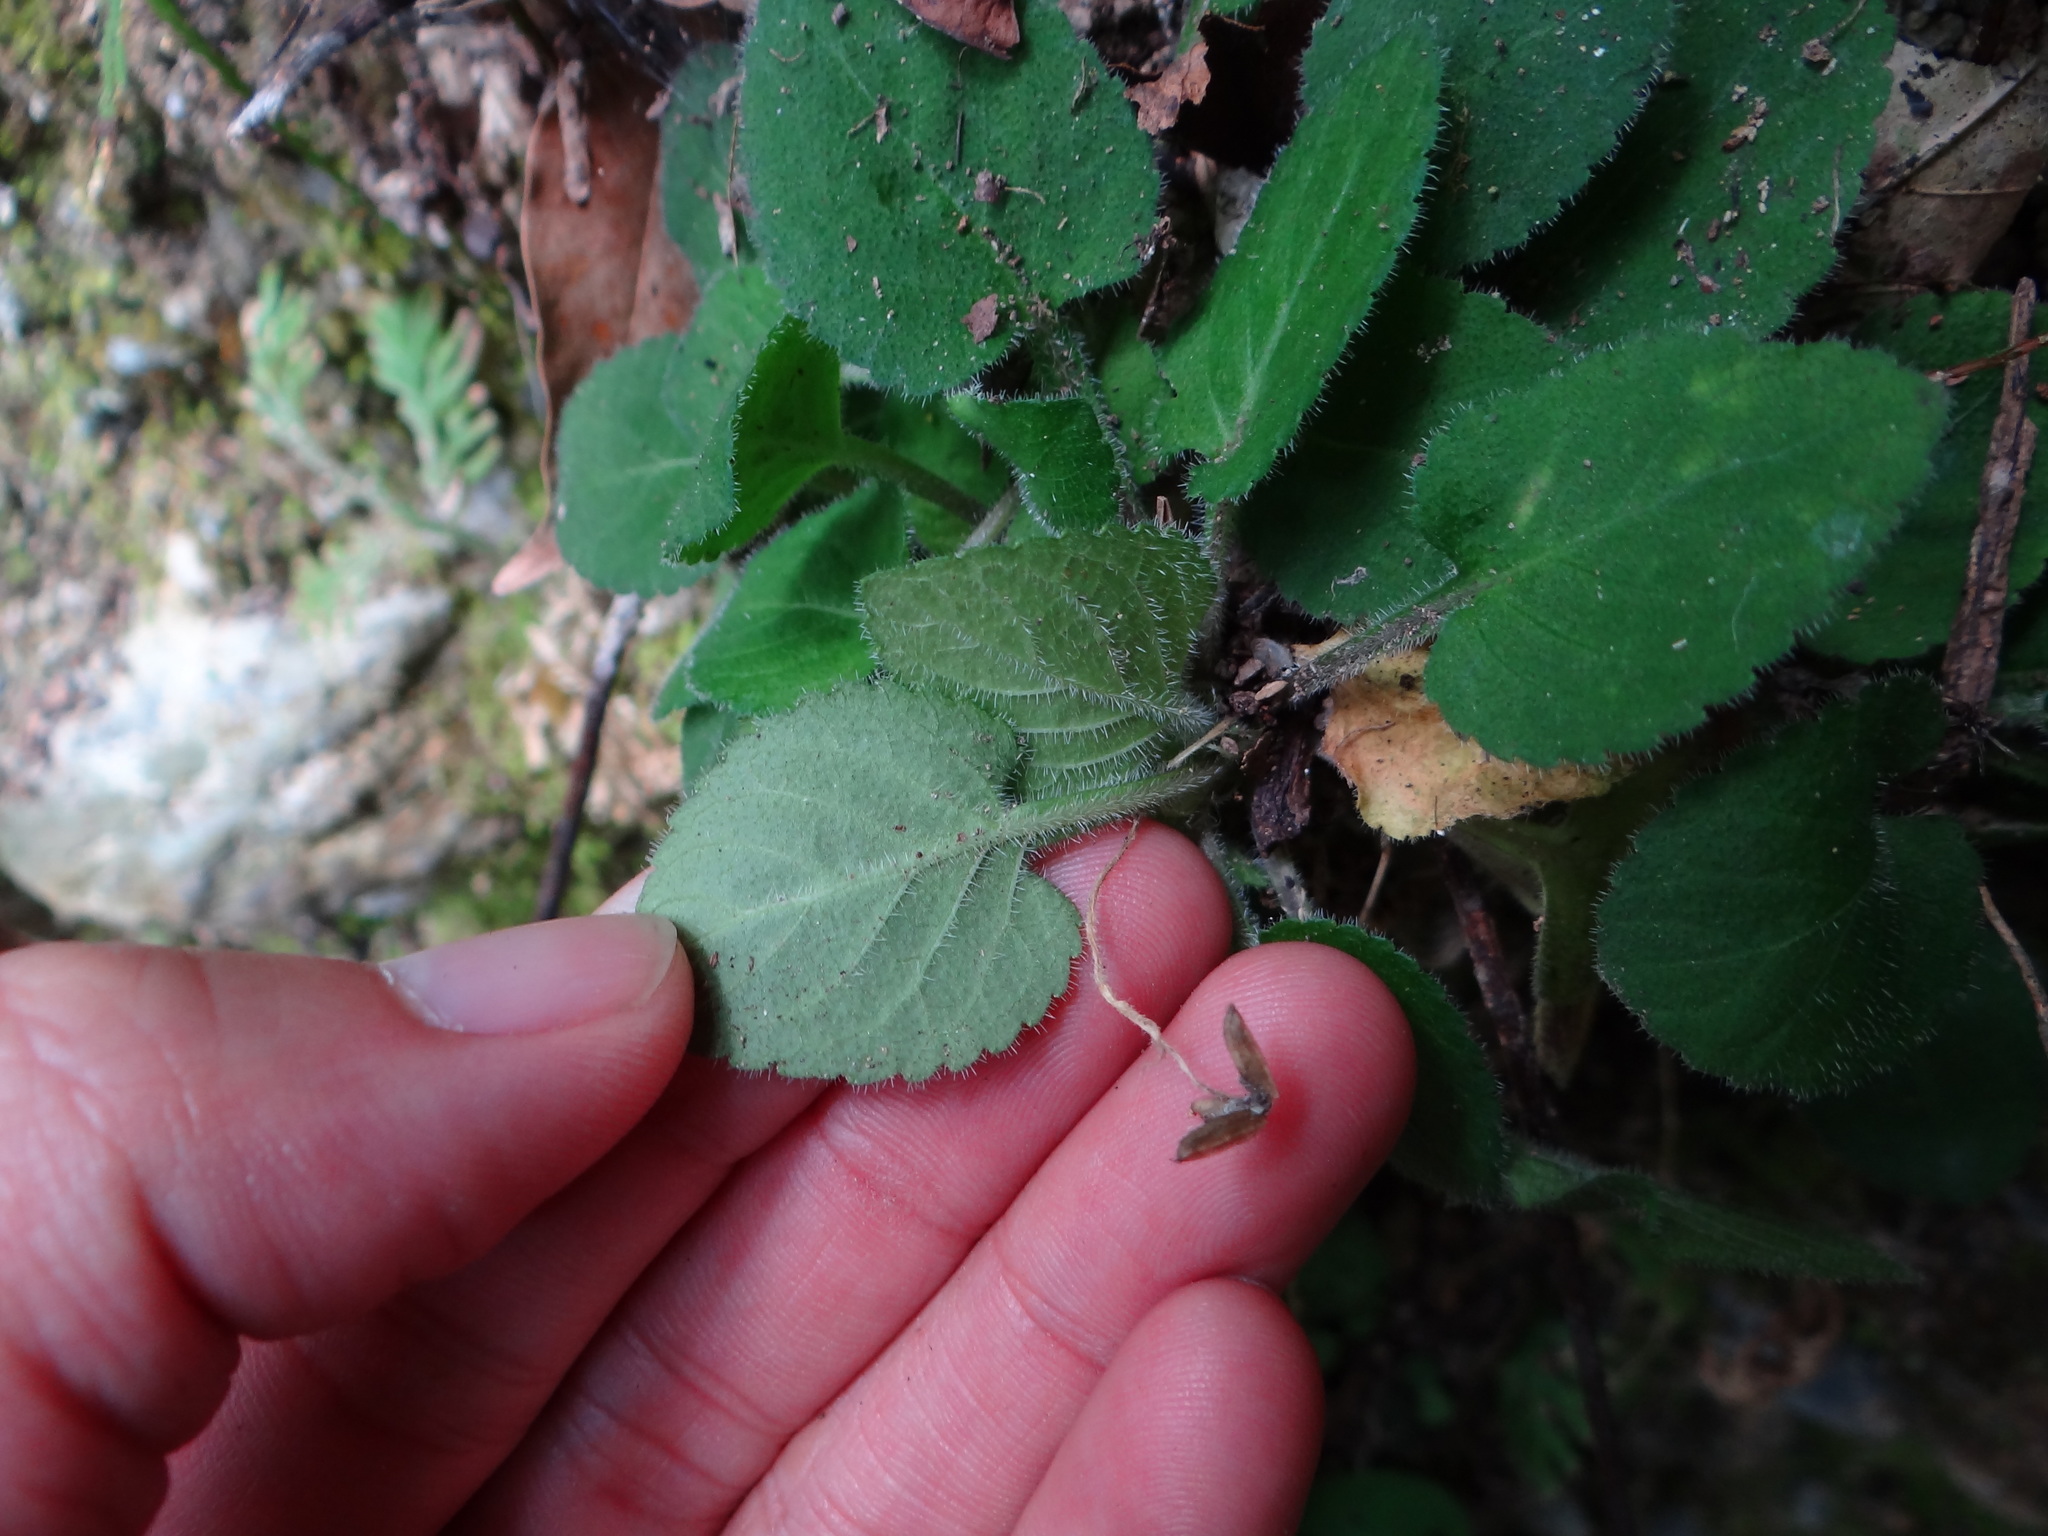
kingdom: Plantae
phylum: Tracheophyta
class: Magnoliopsida
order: Malpighiales
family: Violaceae
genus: Viola
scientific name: Viola diffusa
